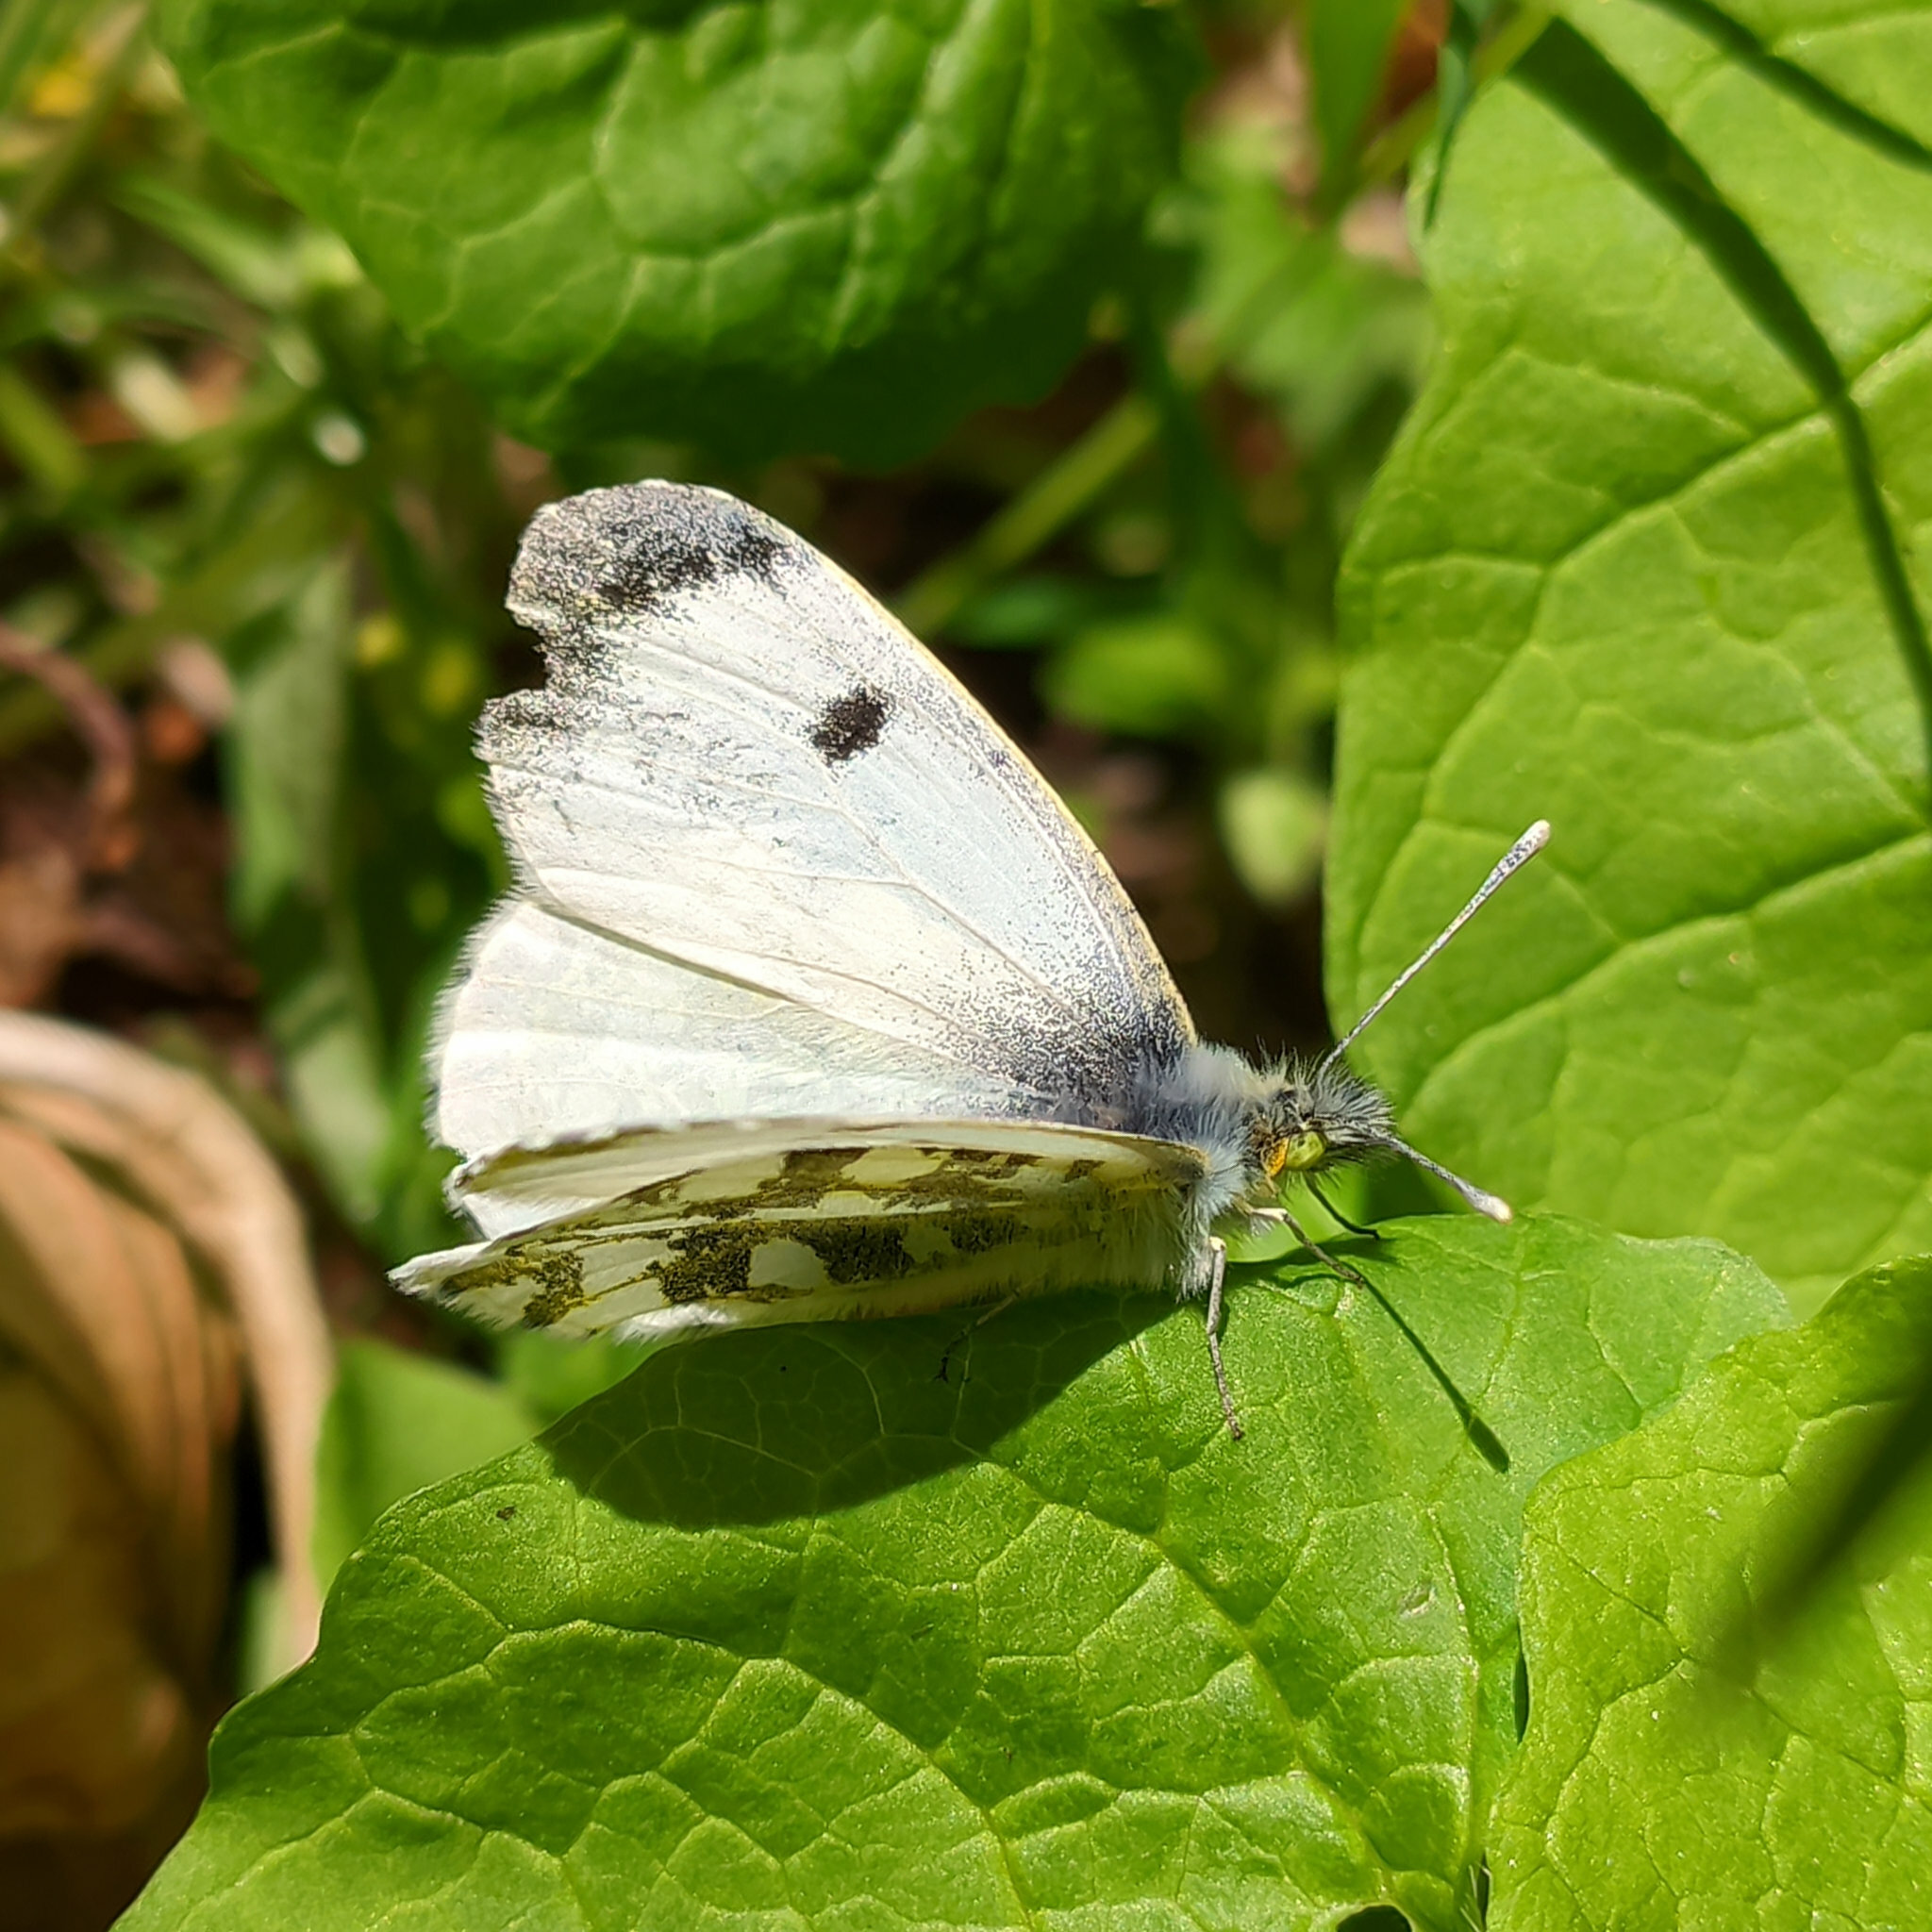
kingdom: Animalia
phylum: Arthropoda
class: Insecta
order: Lepidoptera
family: Pieridae
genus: Anthocharis
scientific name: Anthocharis cardamines
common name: Orange-tip
